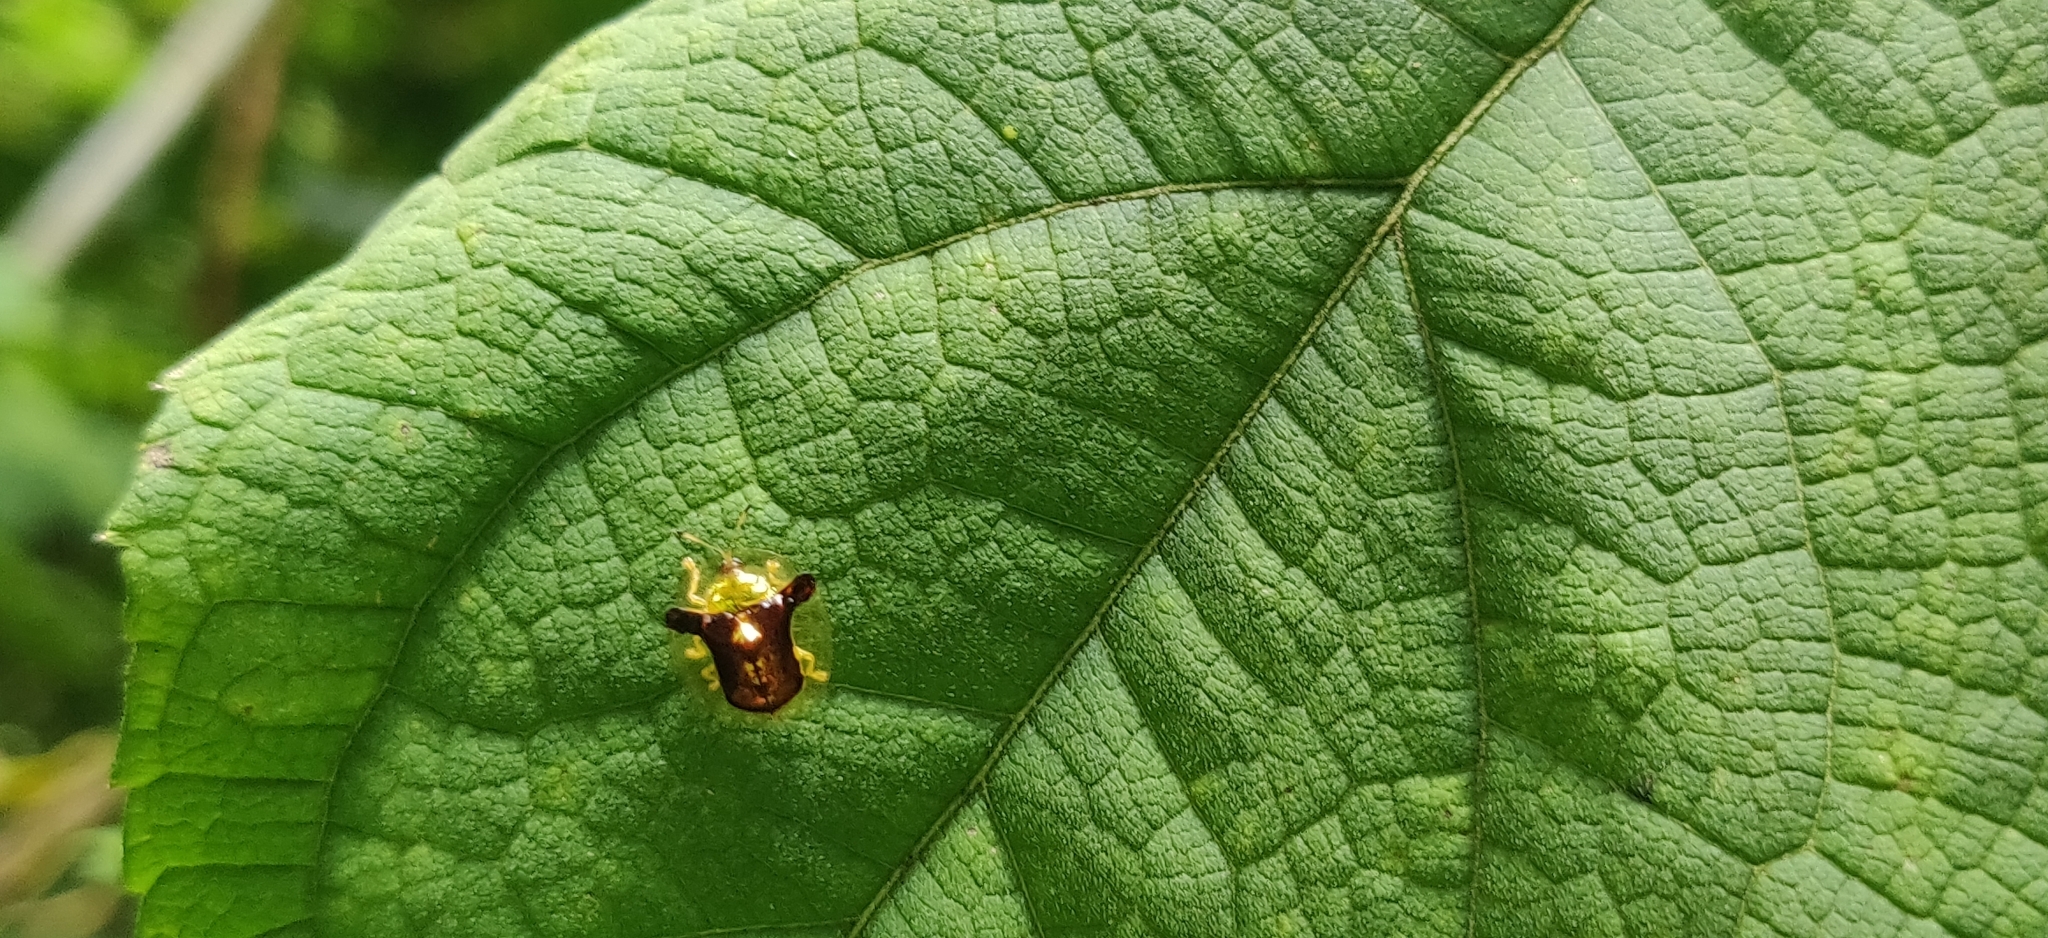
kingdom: Animalia
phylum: Arthropoda
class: Insecta
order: Coleoptera
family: Chrysomelidae
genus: Aspidimorpha
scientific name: Aspidimorpha furcata
